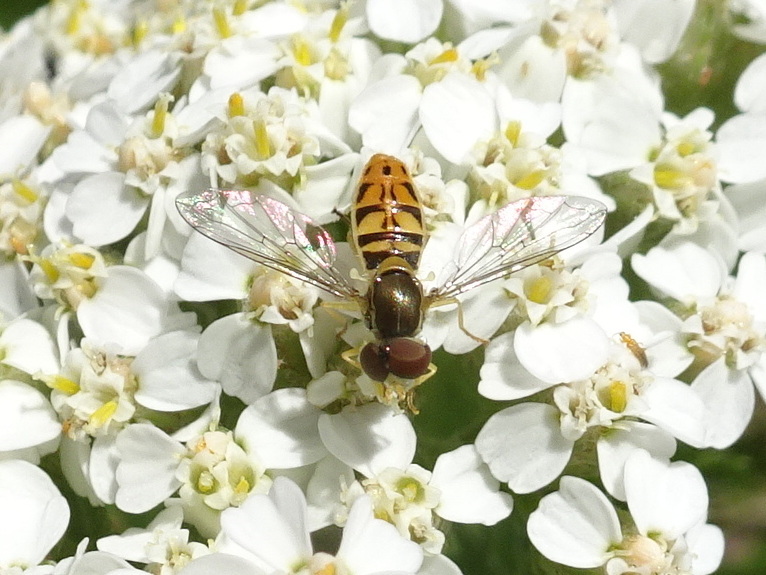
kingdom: Animalia
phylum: Arthropoda
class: Insecta
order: Diptera
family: Syrphidae
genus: Toxomerus
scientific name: Toxomerus marginatus
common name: Syrphid fly
